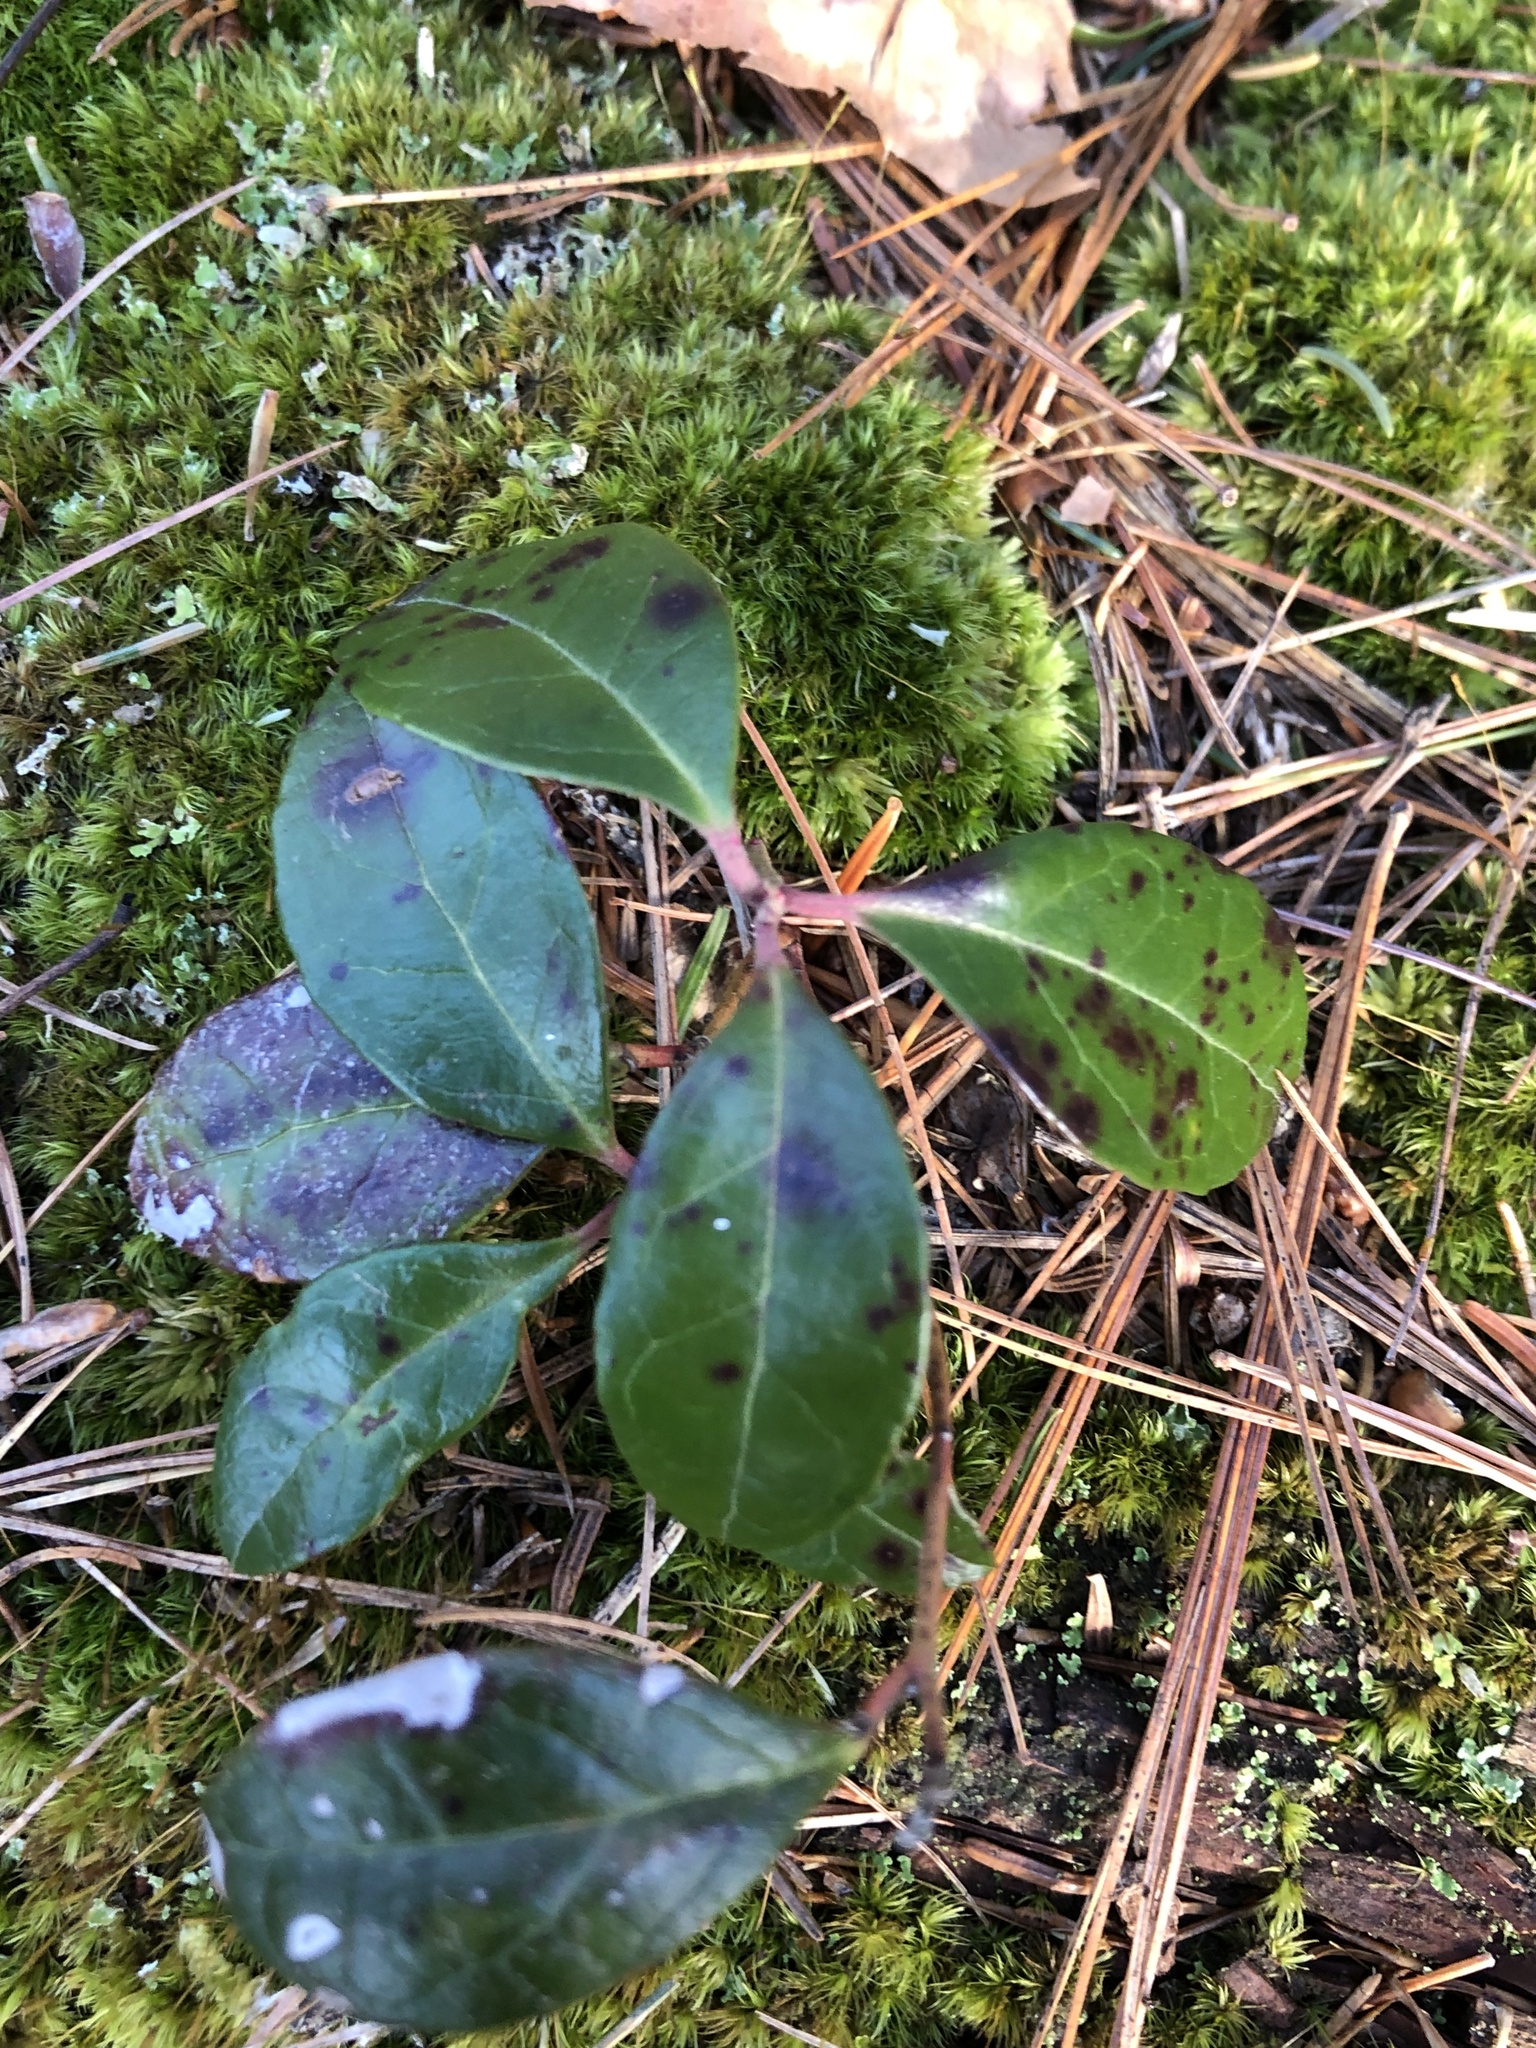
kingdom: Plantae
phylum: Tracheophyta
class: Magnoliopsida
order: Ericales
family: Ericaceae
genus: Gaultheria
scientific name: Gaultheria procumbens
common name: Checkerberry
